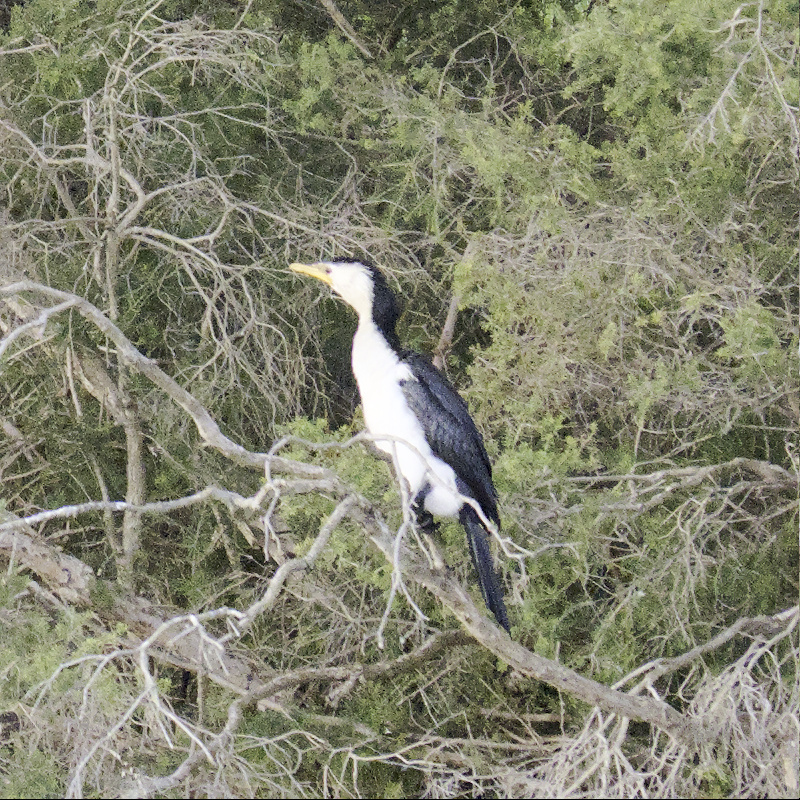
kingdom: Animalia
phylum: Chordata
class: Aves
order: Suliformes
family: Phalacrocoracidae
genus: Microcarbo
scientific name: Microcarbo melanoleucos
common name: Little pied cormorant
